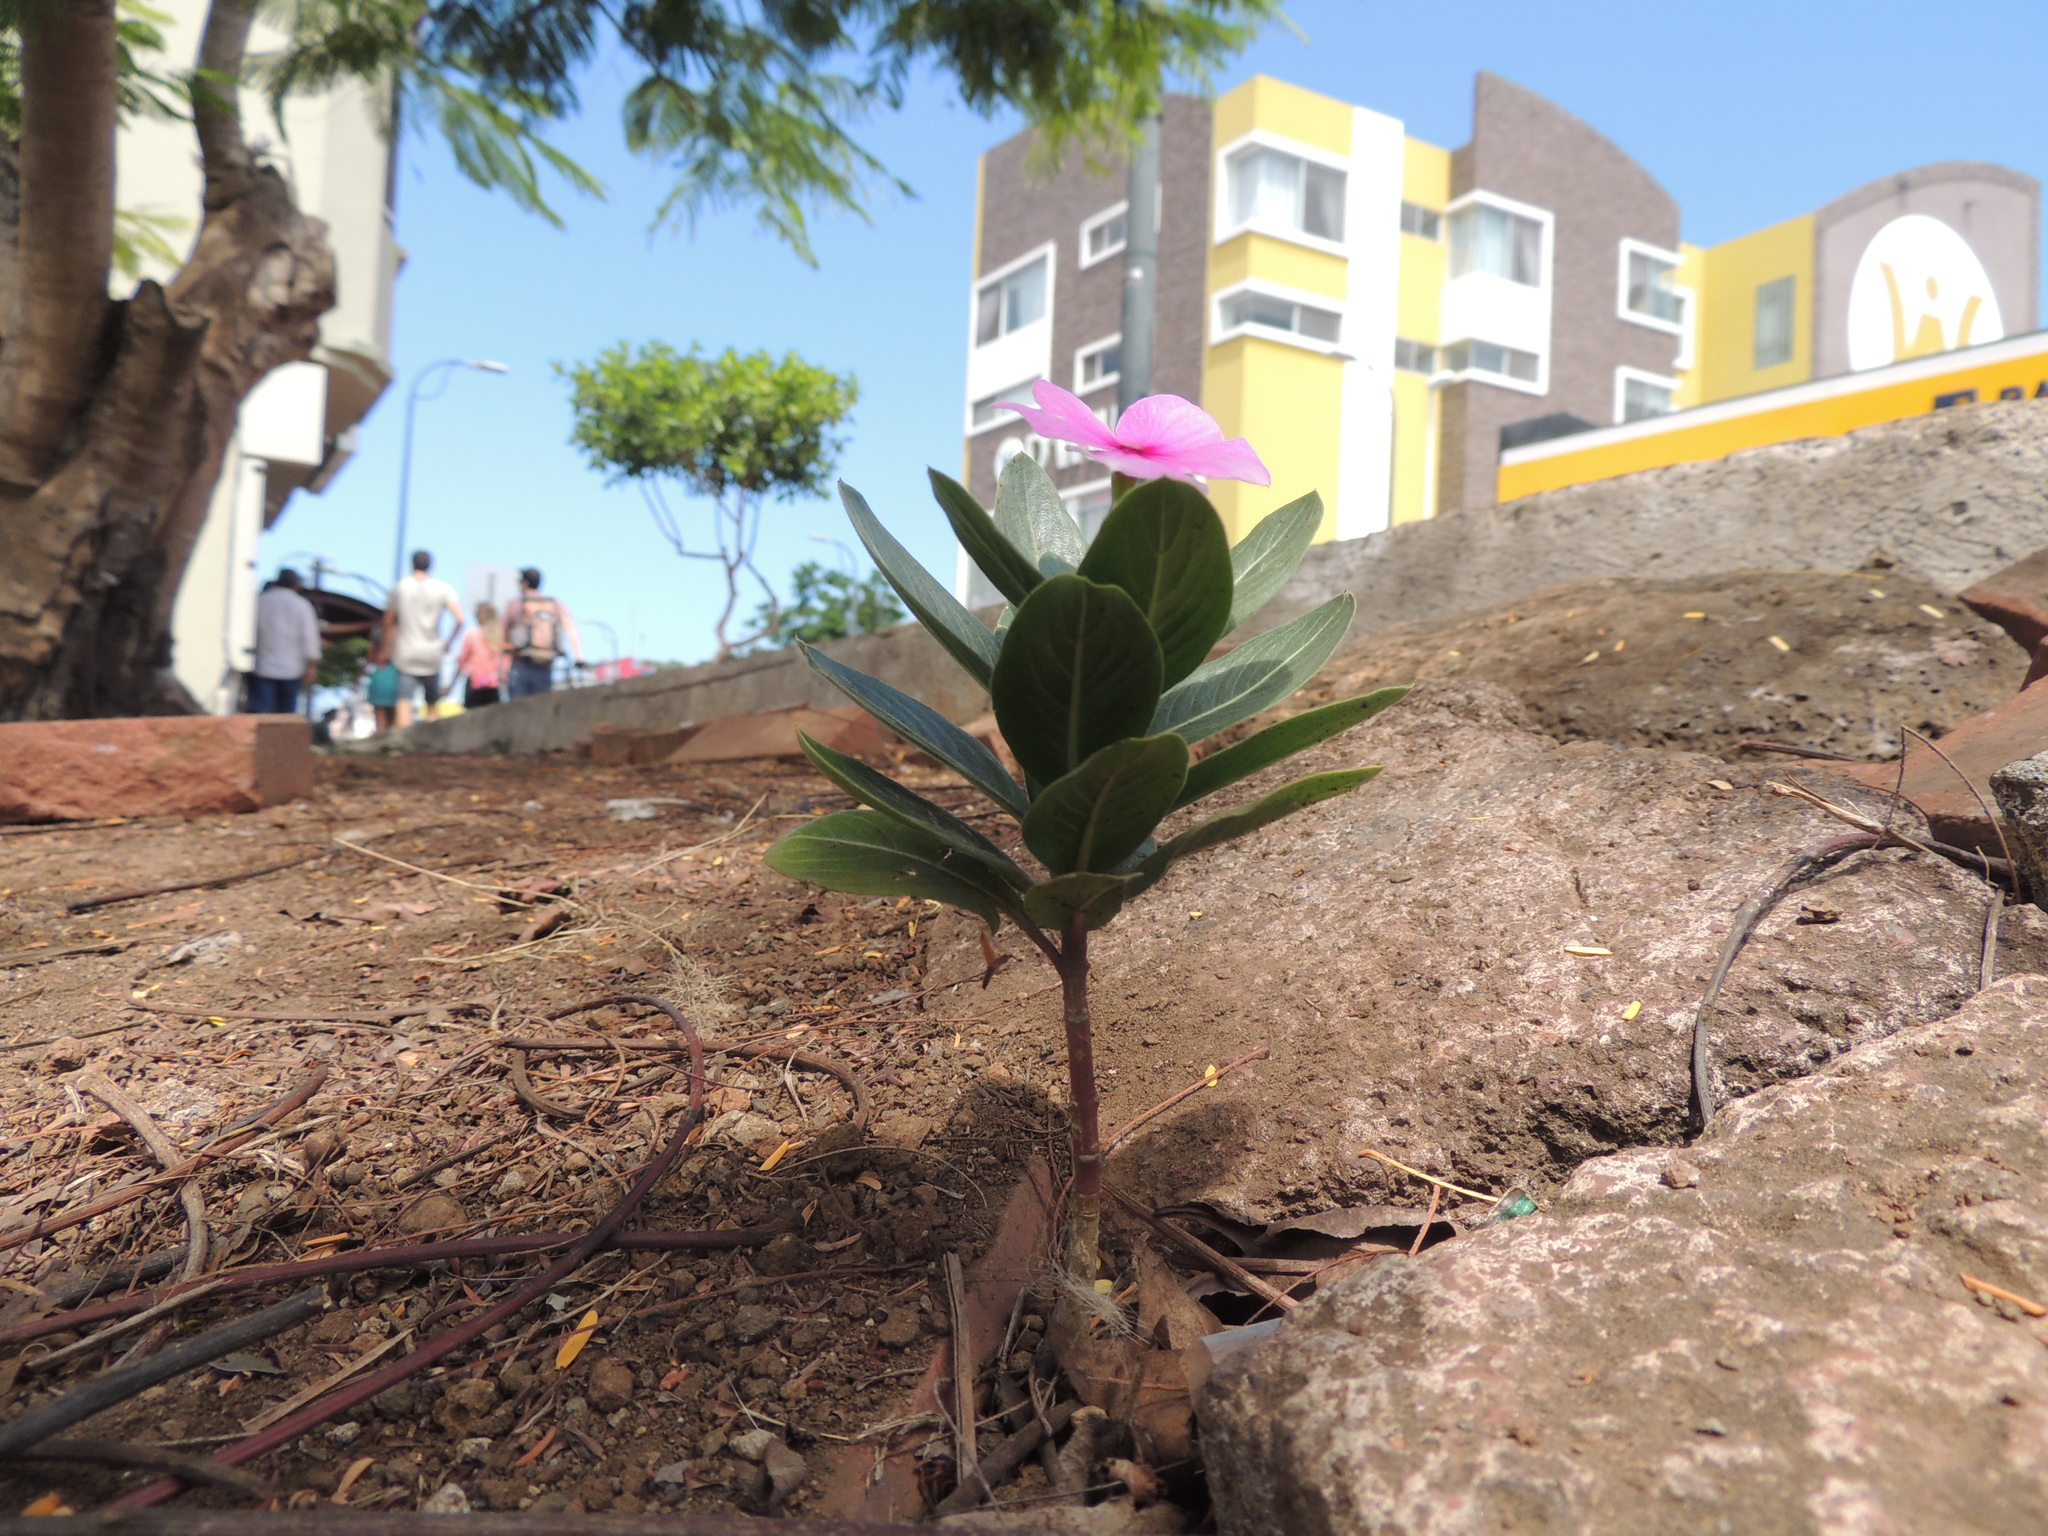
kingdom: Plantae
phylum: Tracheophyta
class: Magnoliopsida
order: Gentianales
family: Apocynaceae
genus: Catharanthus
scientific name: Catharanthus roseus
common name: Madagascar periwinkle
